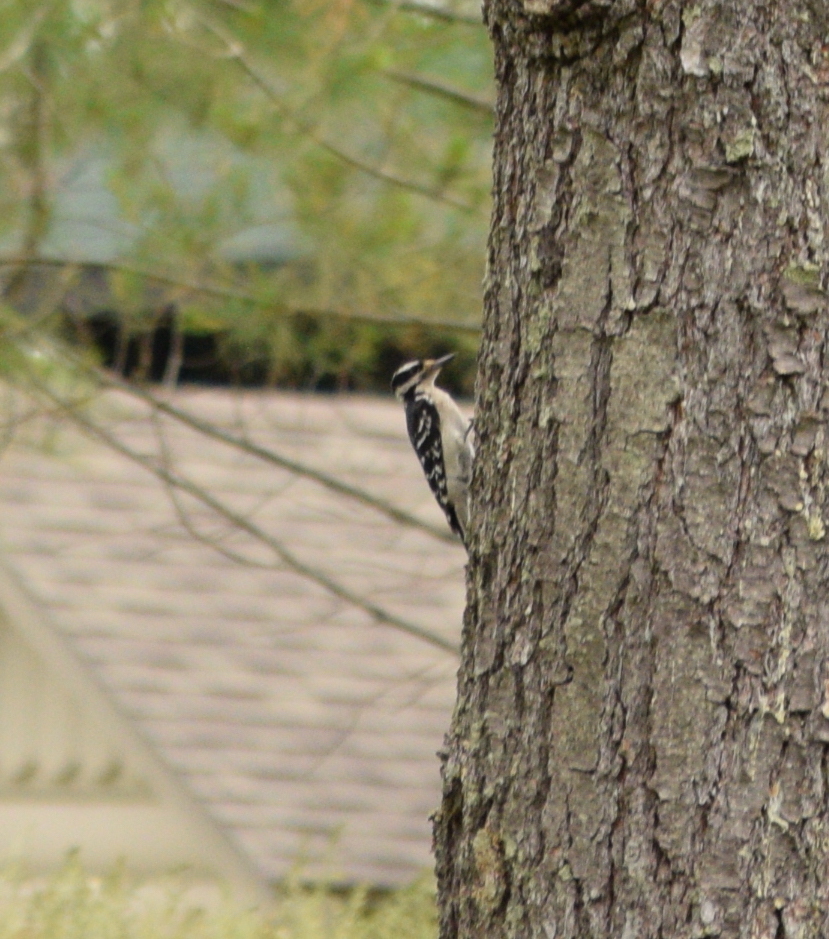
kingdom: Animalia
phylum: Chordata
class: Aves
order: Piciformes
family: Picidae
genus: Leuconotopicus
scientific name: Leuconotopicus villosus
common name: Hairy woodpecker
